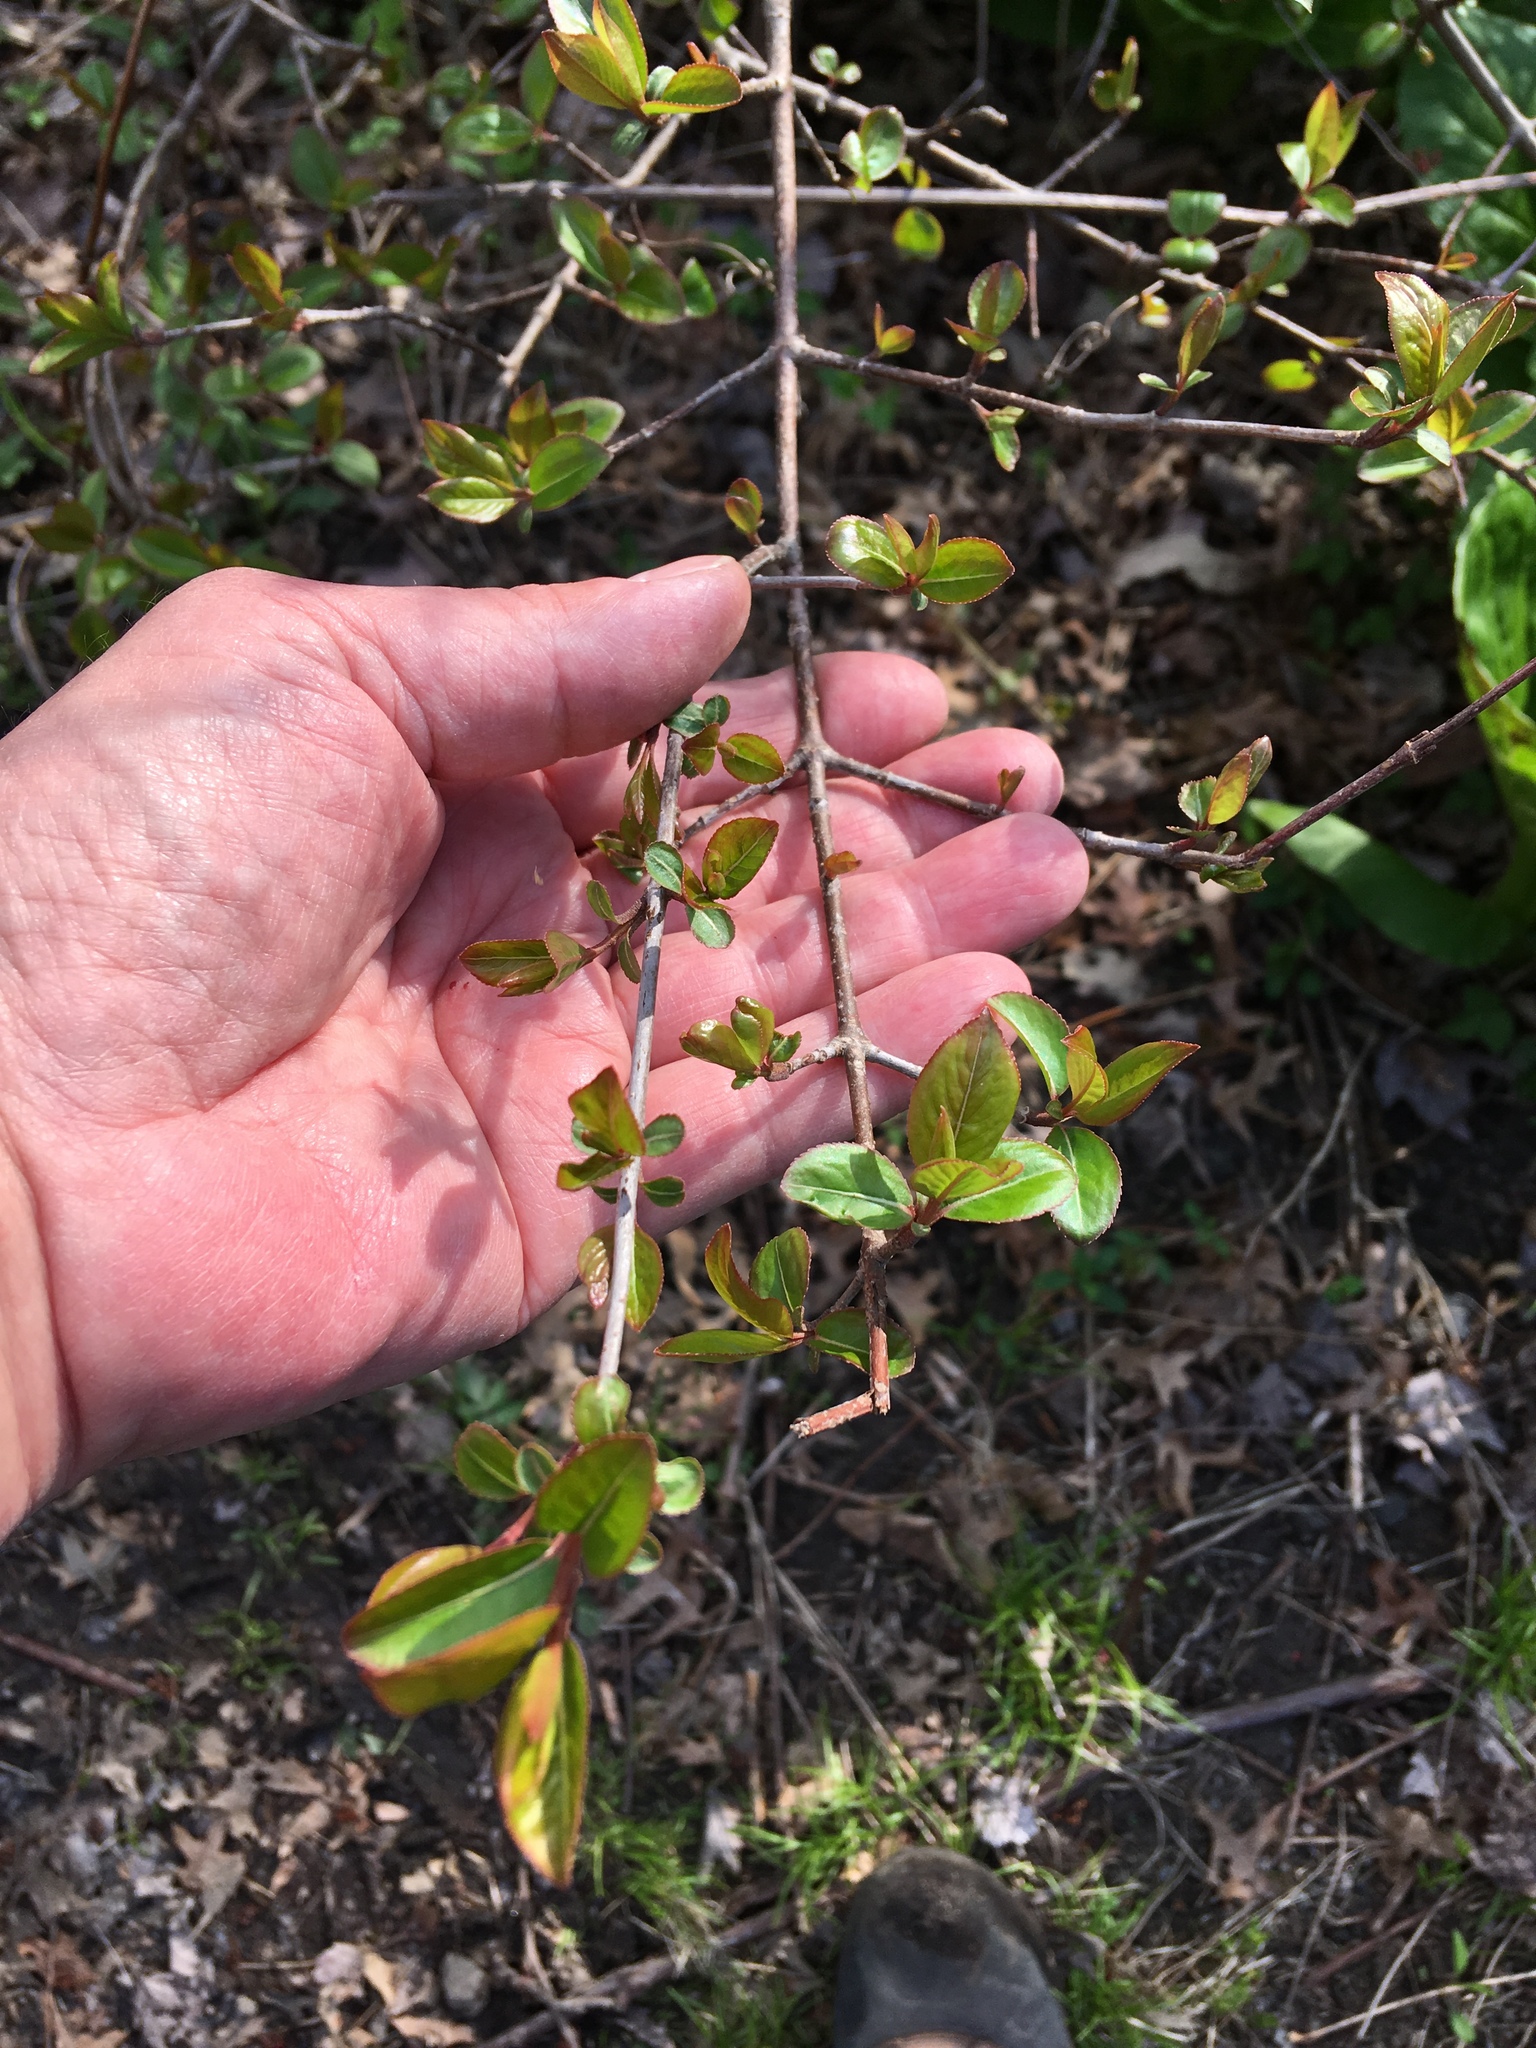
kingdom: Plantae
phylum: Tracheophyta
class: Magnoliopsida
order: Dipsacales
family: Viburnaceae
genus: Viburnum
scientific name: Viburnum prunifolium
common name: Black haw
